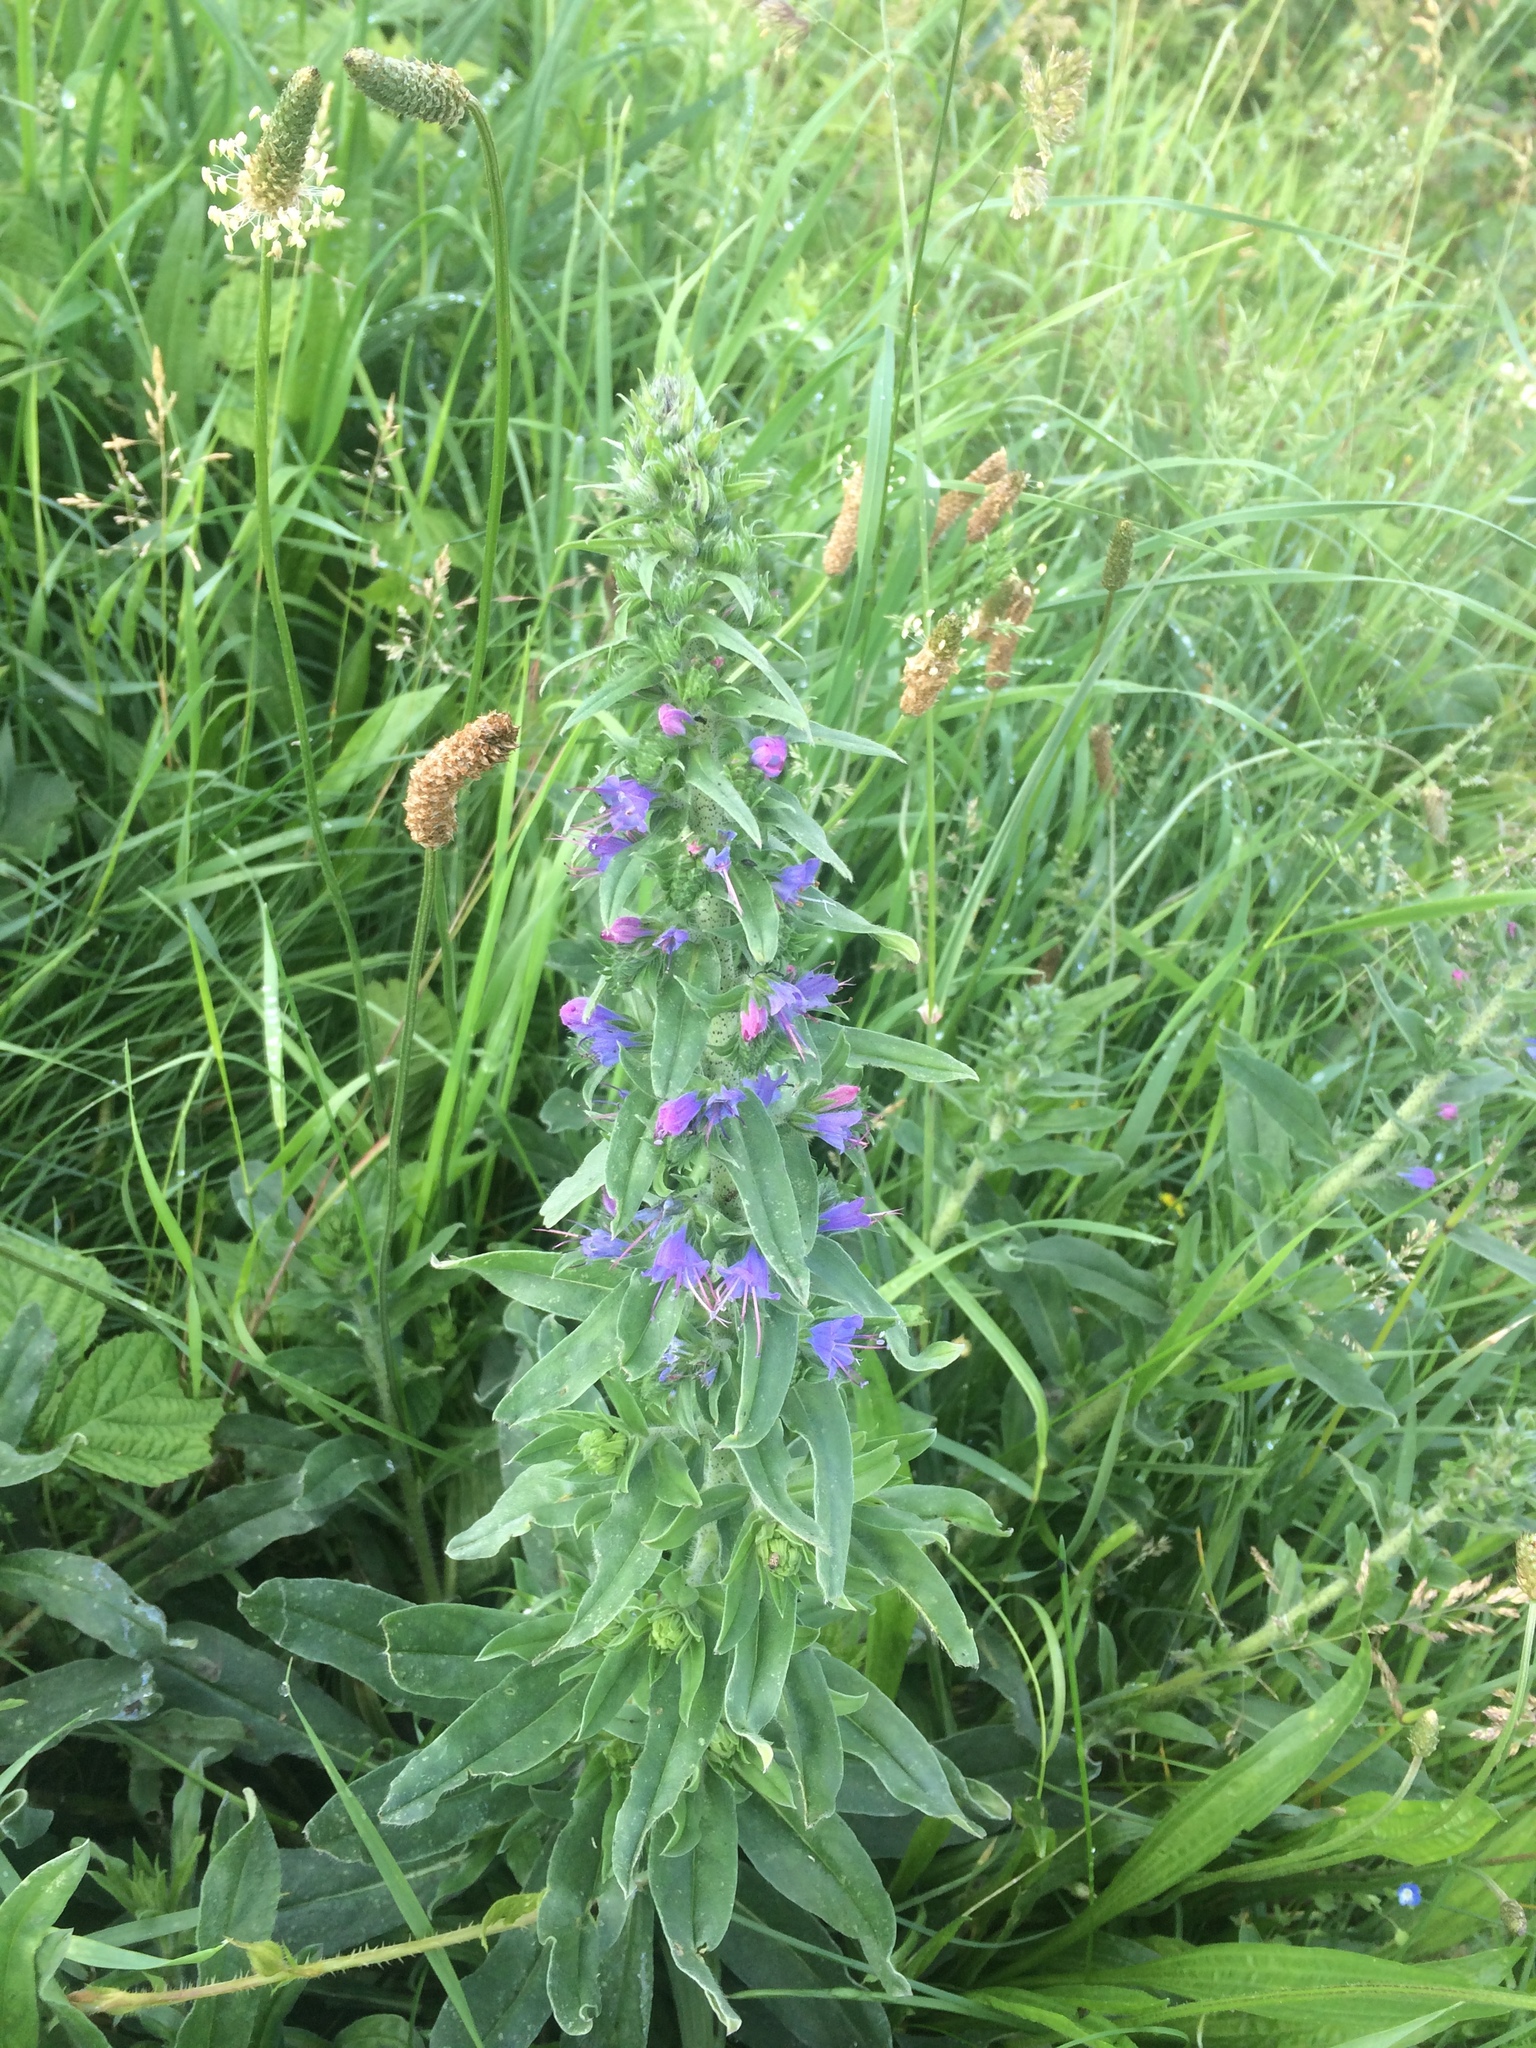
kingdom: Plantae
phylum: Tracheophyta
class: Magnoliopsida
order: Boraginales
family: Boraginaceae
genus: Echium
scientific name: Echium vulgare
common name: Common viper's bugloss
